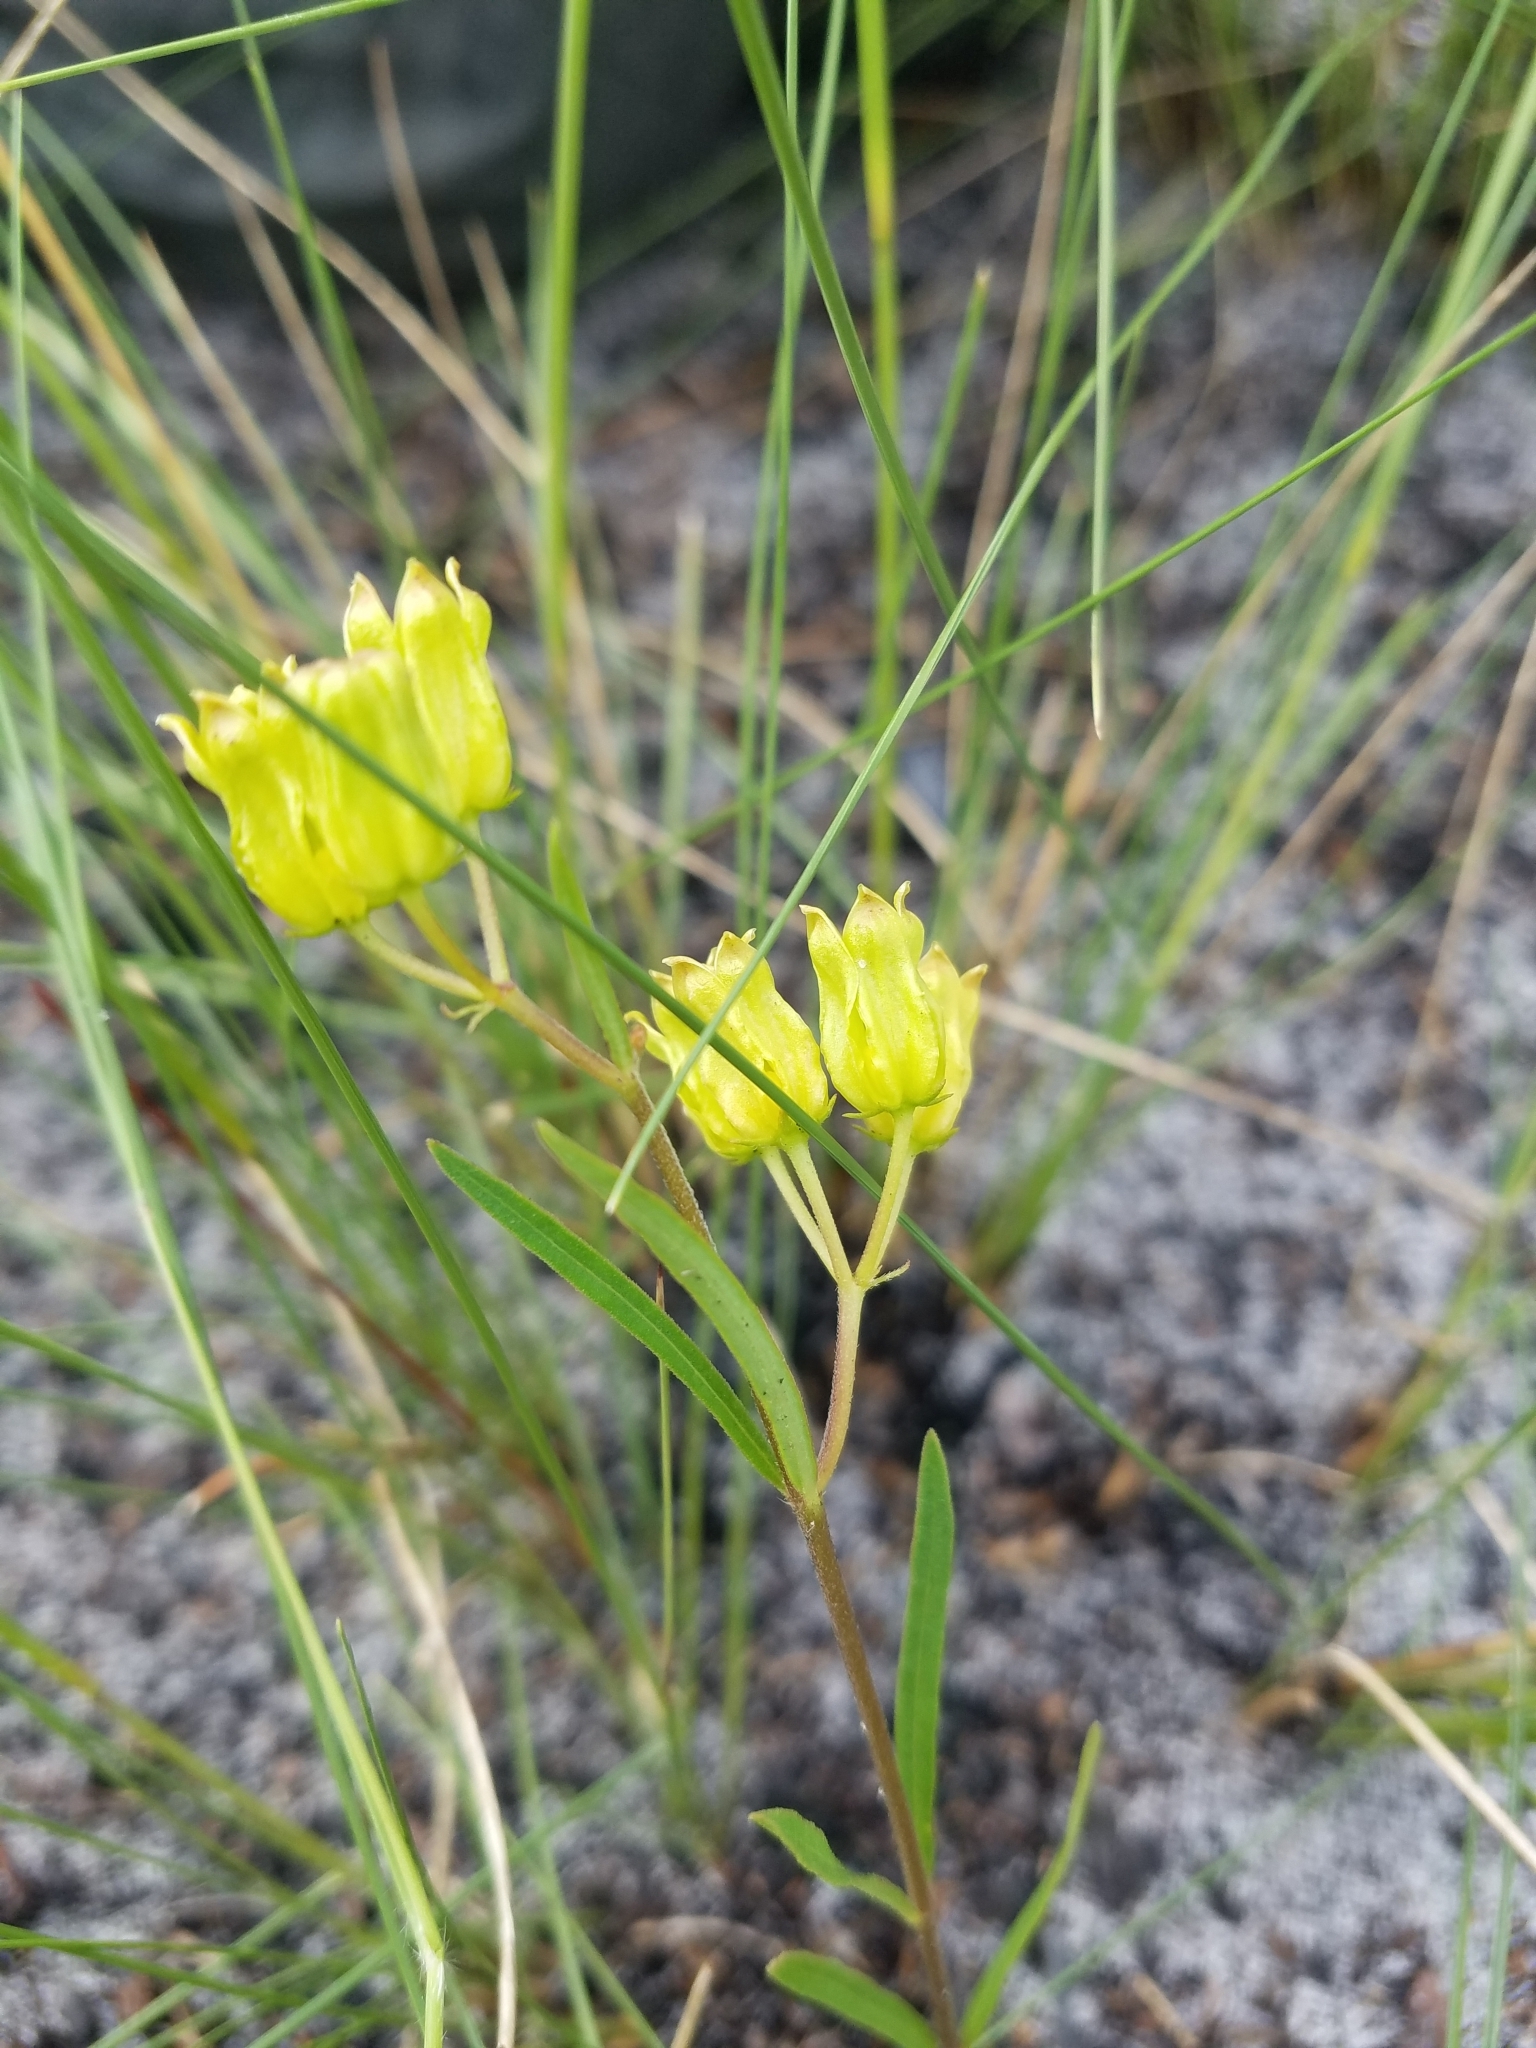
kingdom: Plantae
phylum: Tracheophyta
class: Magnoliopsida
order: Gentianales
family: Apocynaceae
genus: Asclepias
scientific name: Asclepias pedicellata
